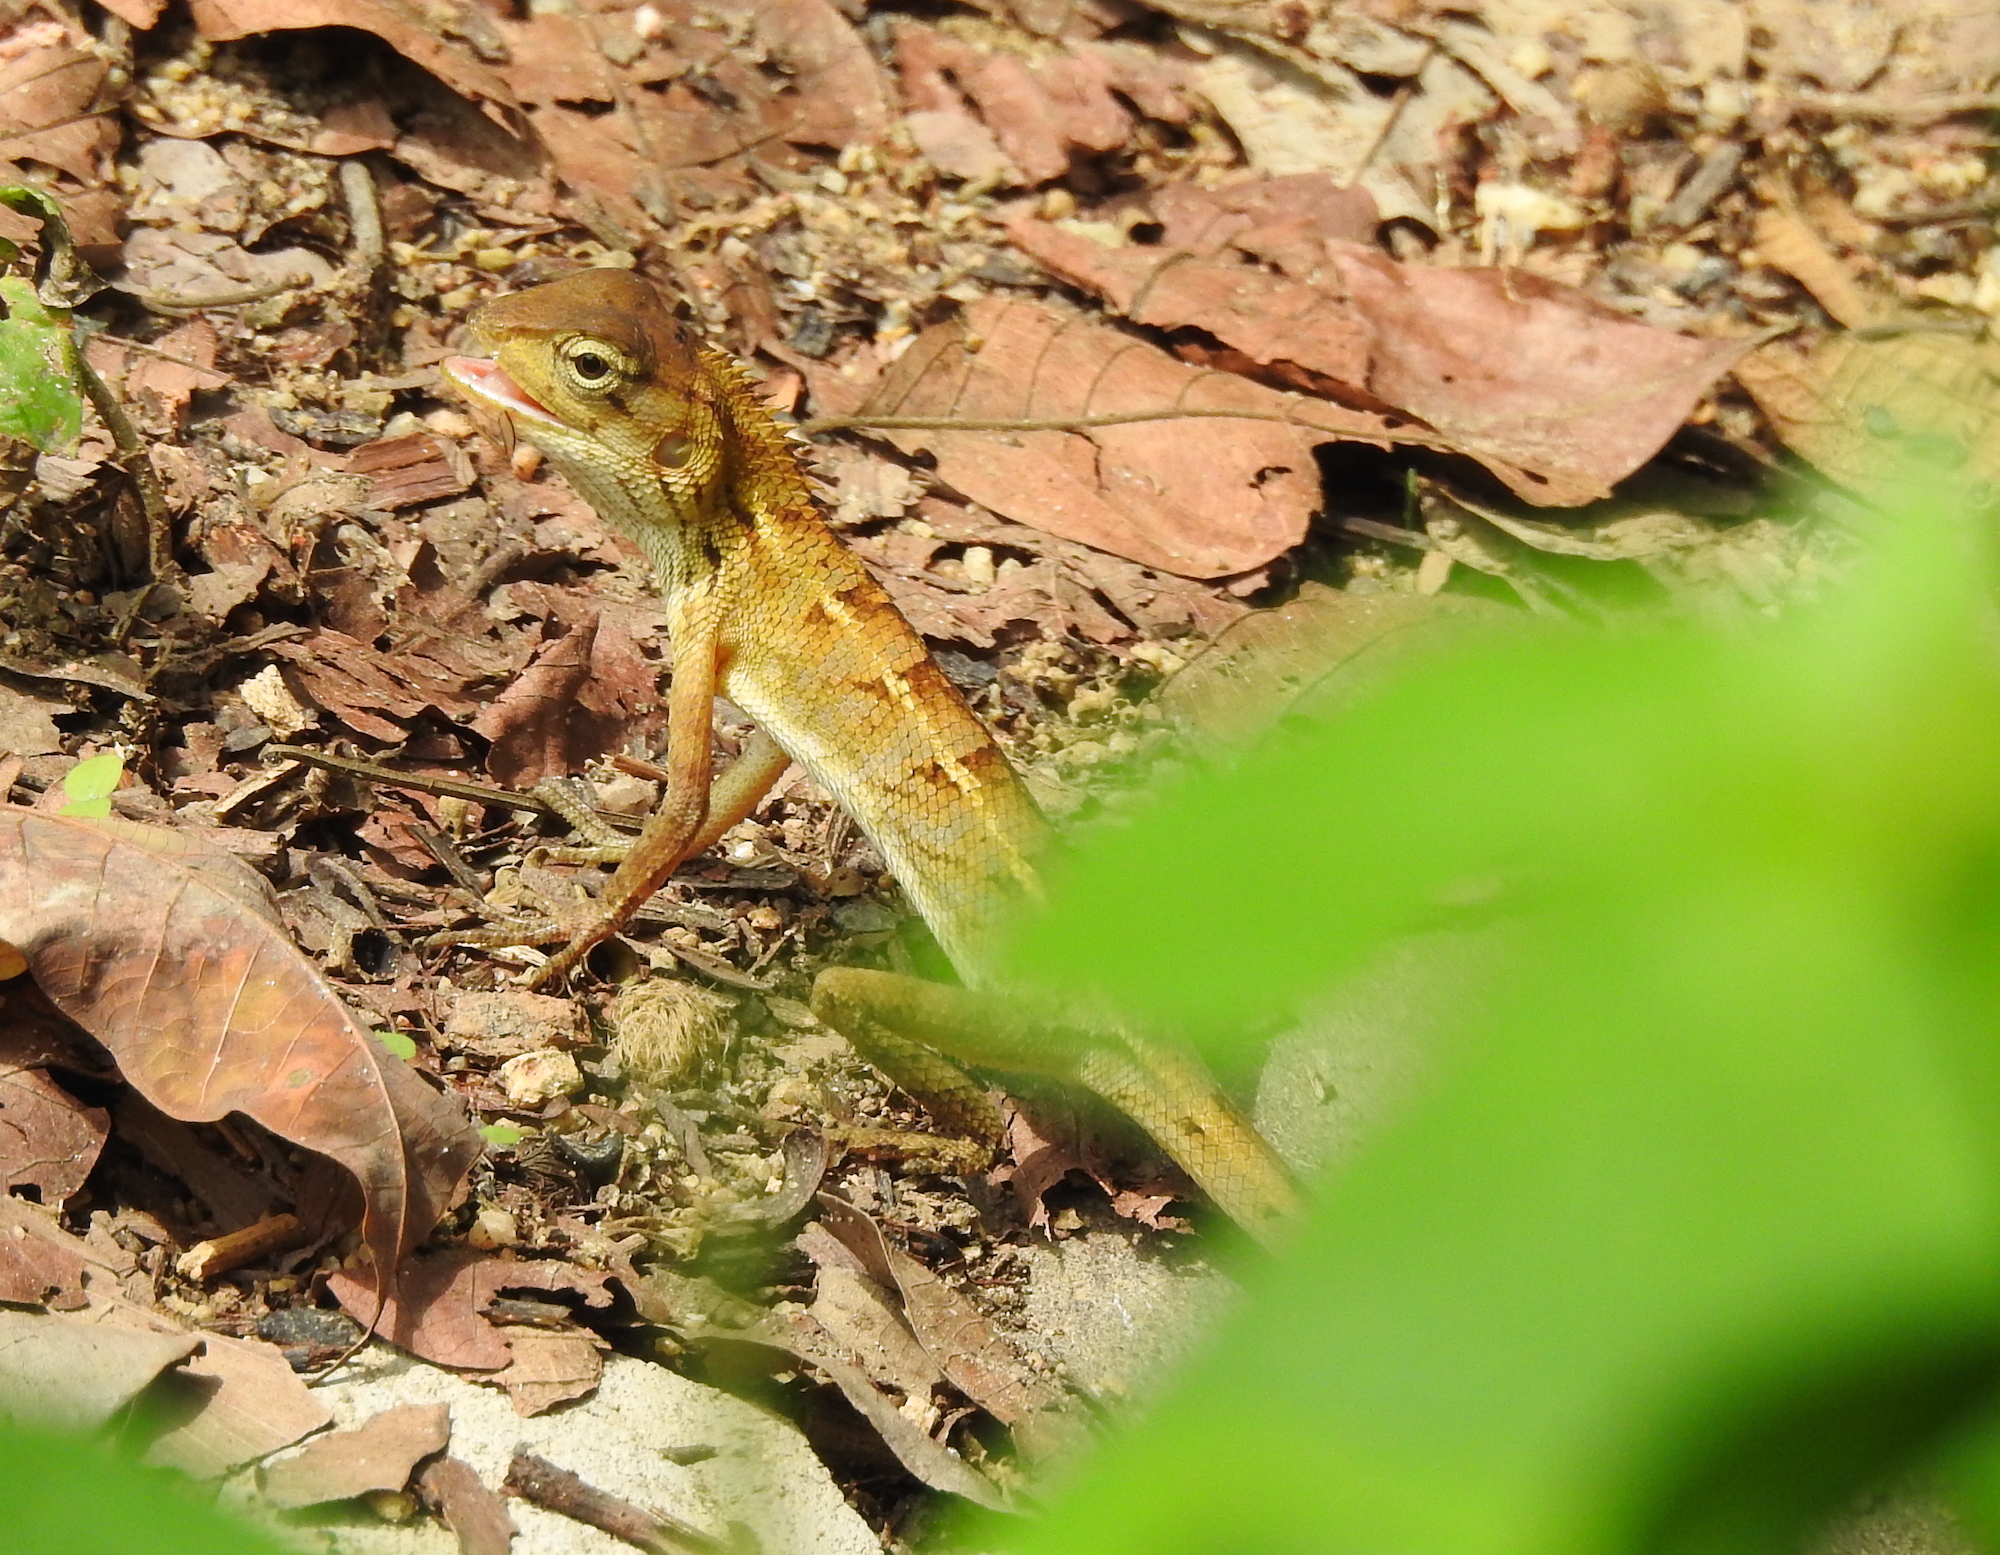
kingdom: Animalia
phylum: Chordata
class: Squamata
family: Agamidae
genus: Calotes
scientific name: Calotes versicolor
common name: Oriental garden lizard
